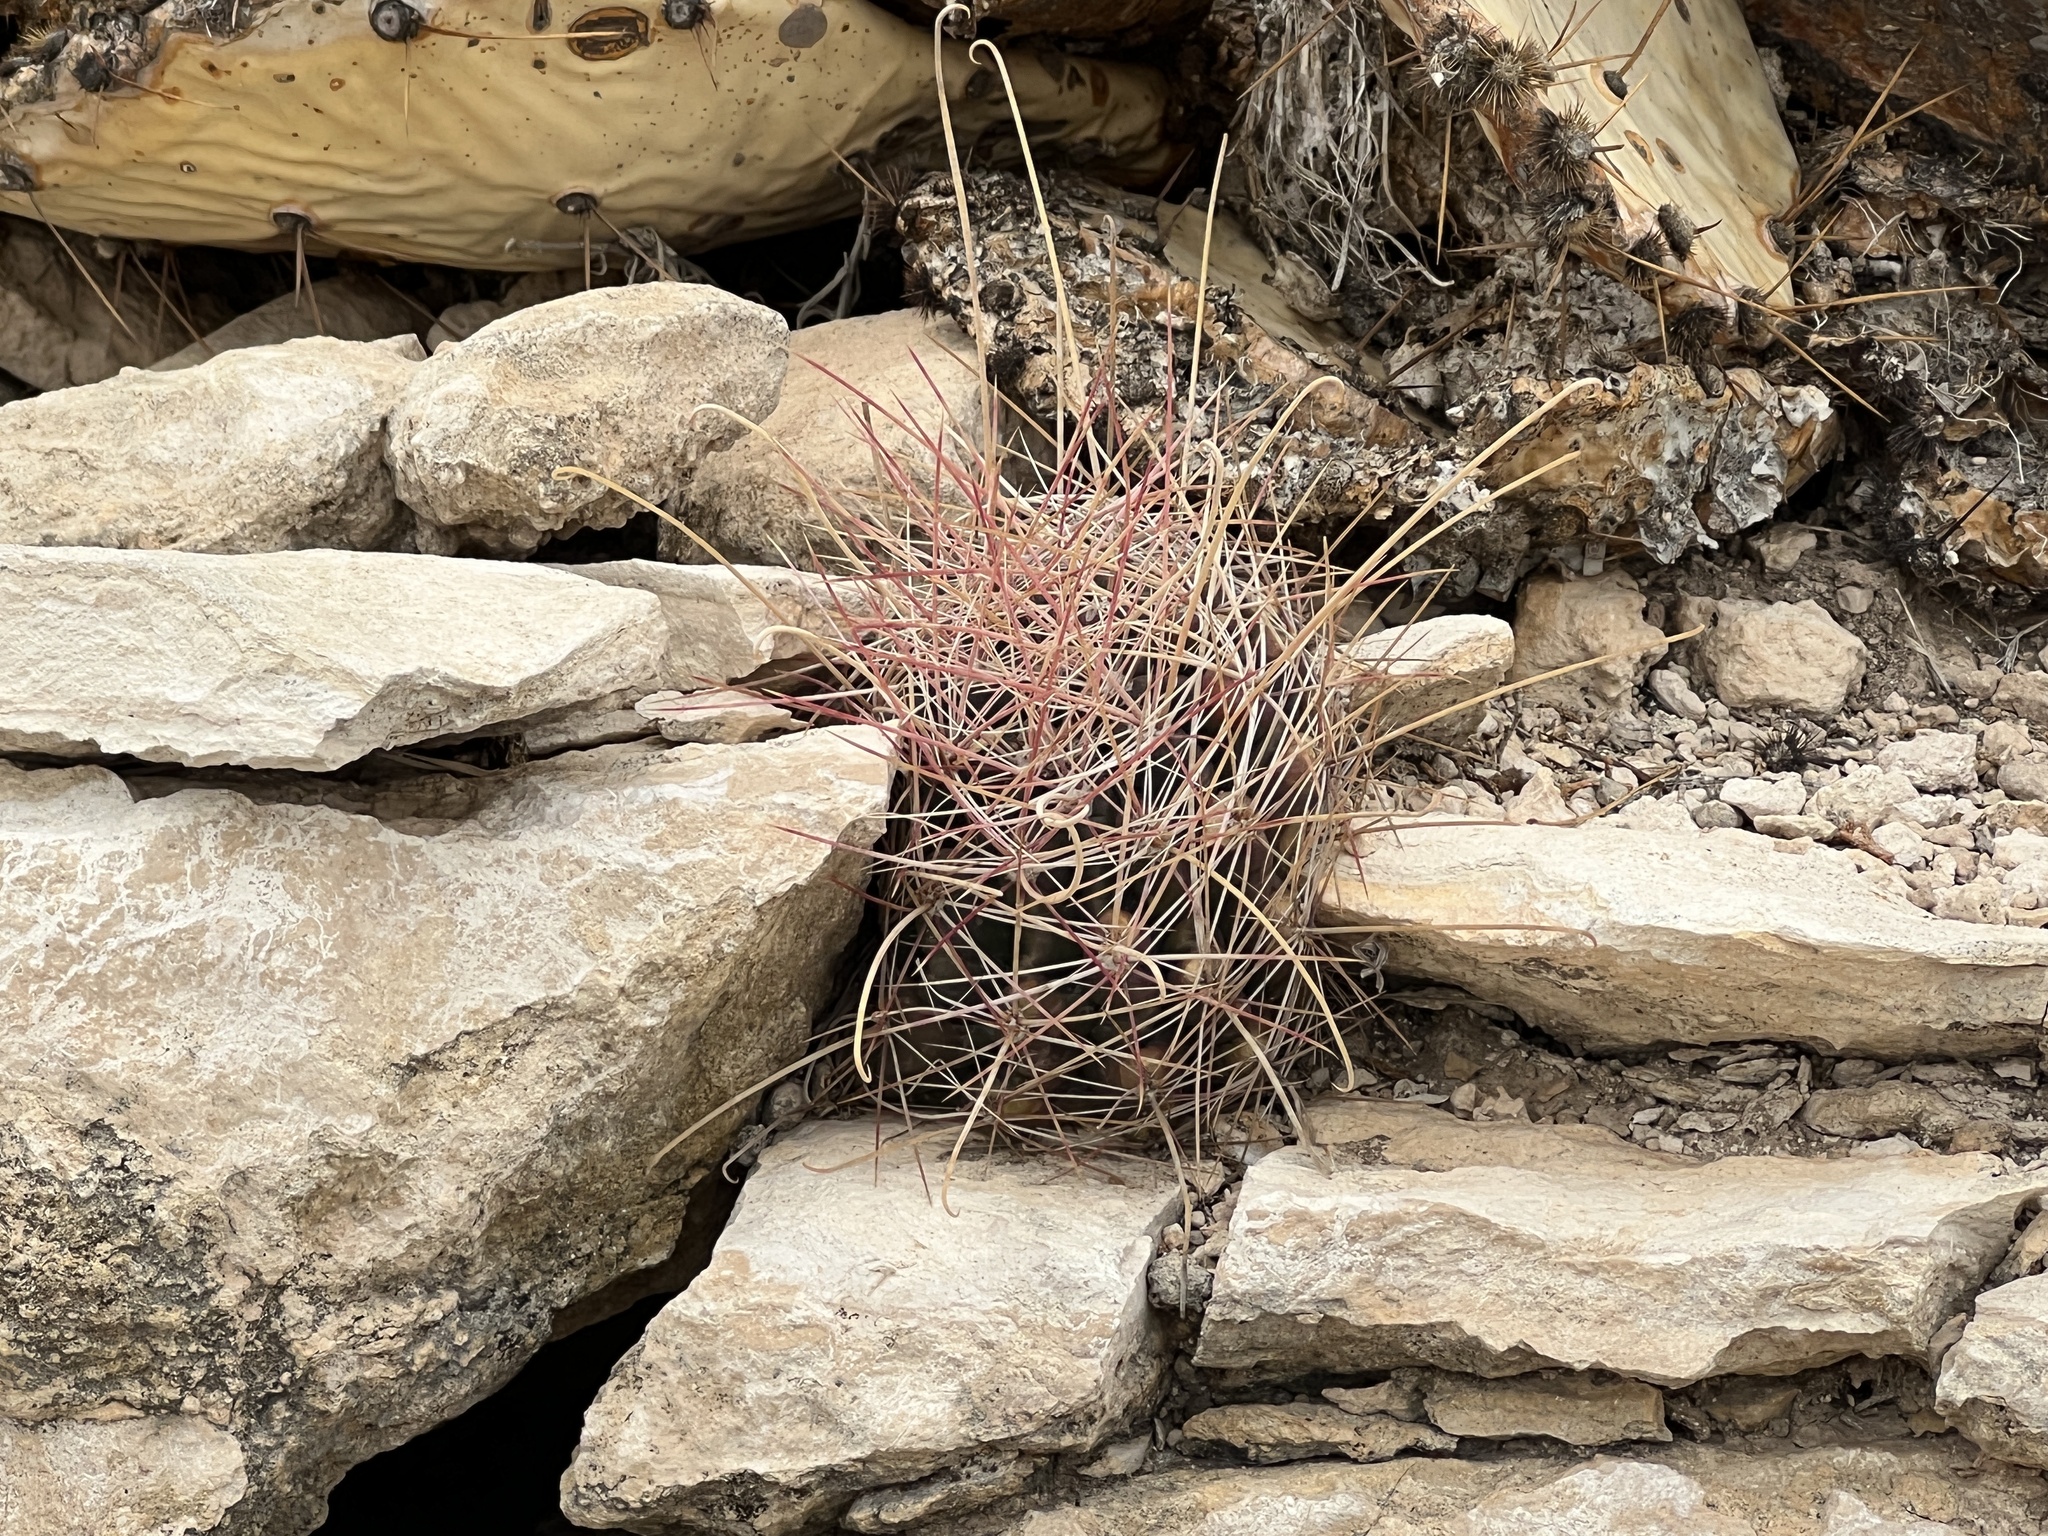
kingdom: Plantae
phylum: Tracheophyta
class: Magnoliopsida
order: Caryophyllales
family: Cactaceae
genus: Bisnaga
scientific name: Bisnaga hamatacantha
